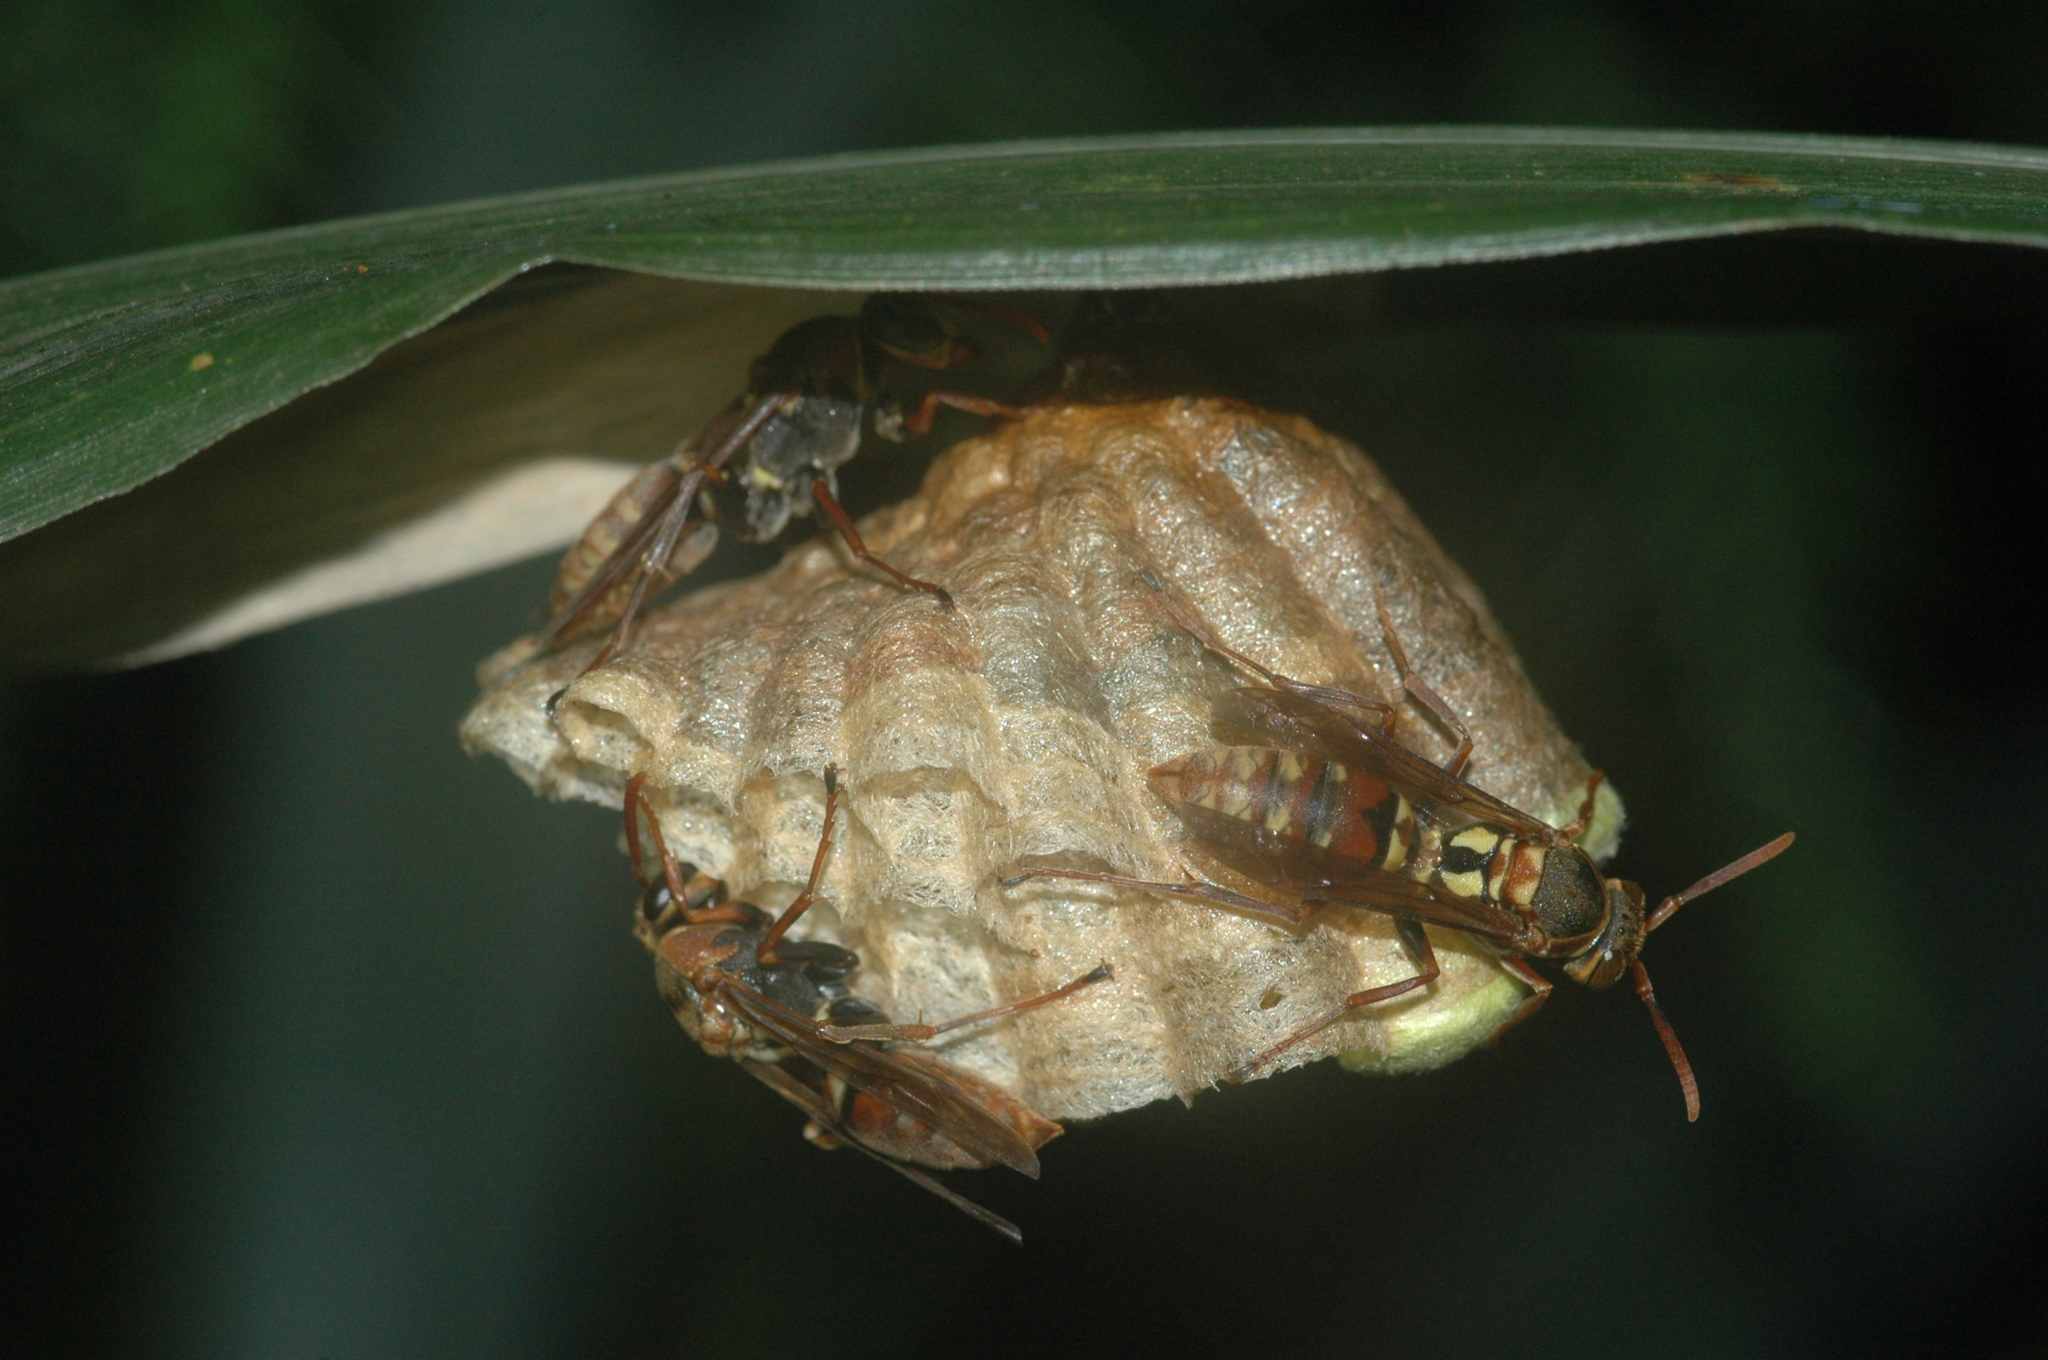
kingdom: Animalia
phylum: Arthropoda
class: Insecta
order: Hymenoptera
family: Eumenidae
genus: Polistes
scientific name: Polistes takasagonus
